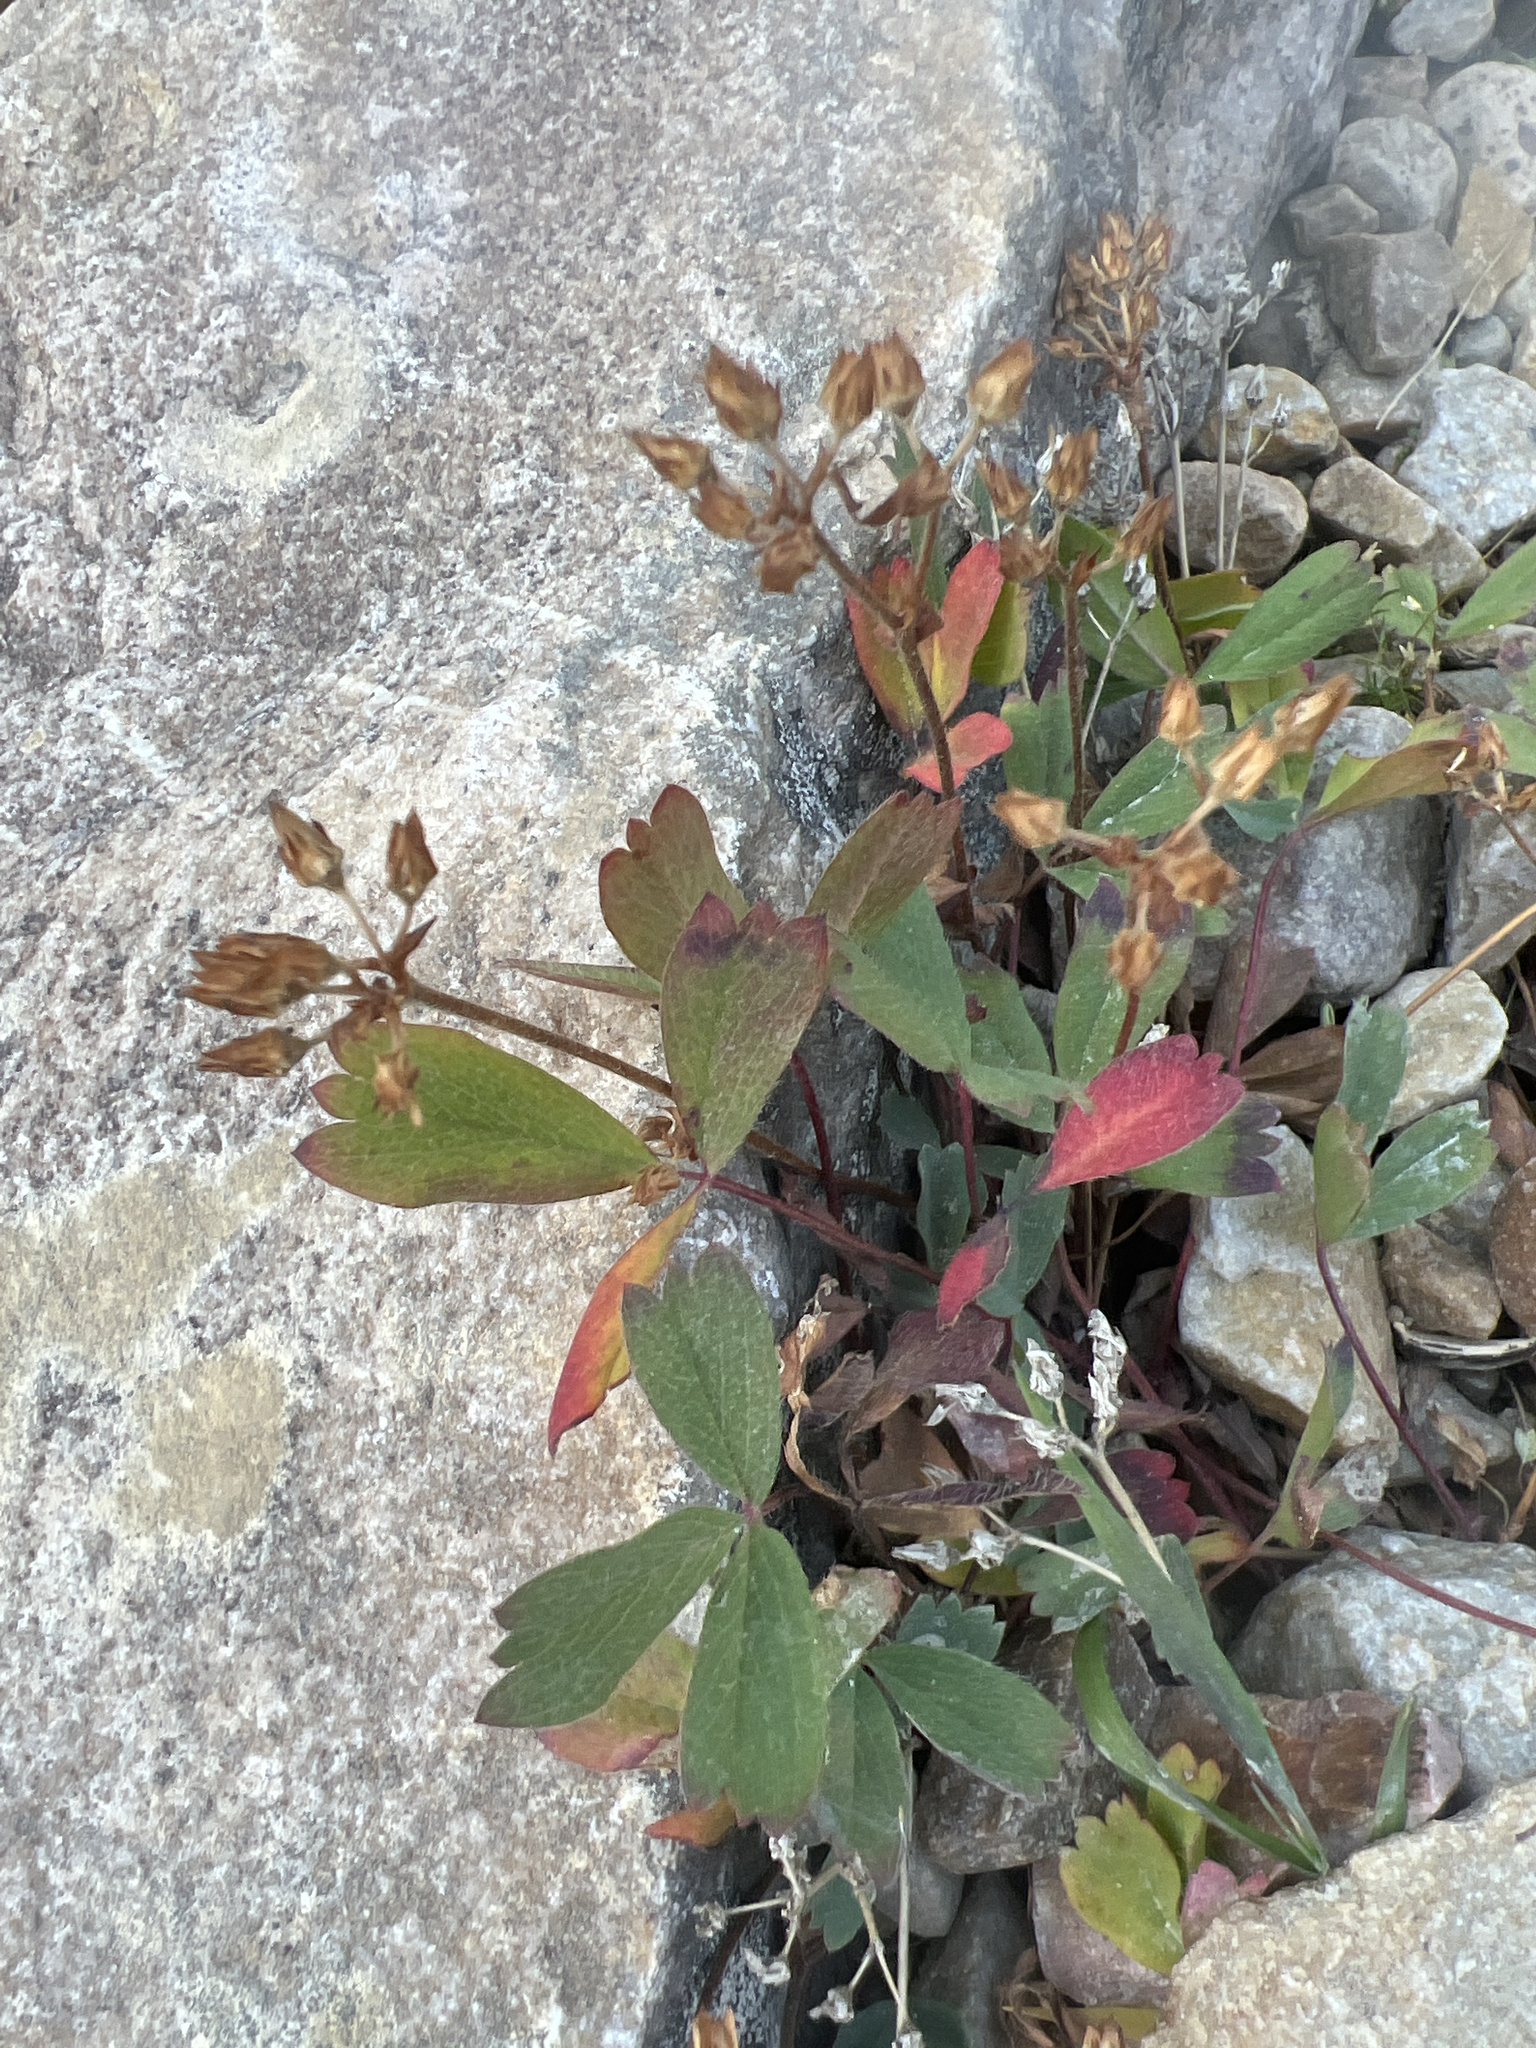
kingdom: Plantae
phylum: Tracheophyta
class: Magnoliopsida
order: Rosales
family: Rosaceae
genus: Sibbaldia
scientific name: Sibbaldia procumbens
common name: Creeping sibbaldia
